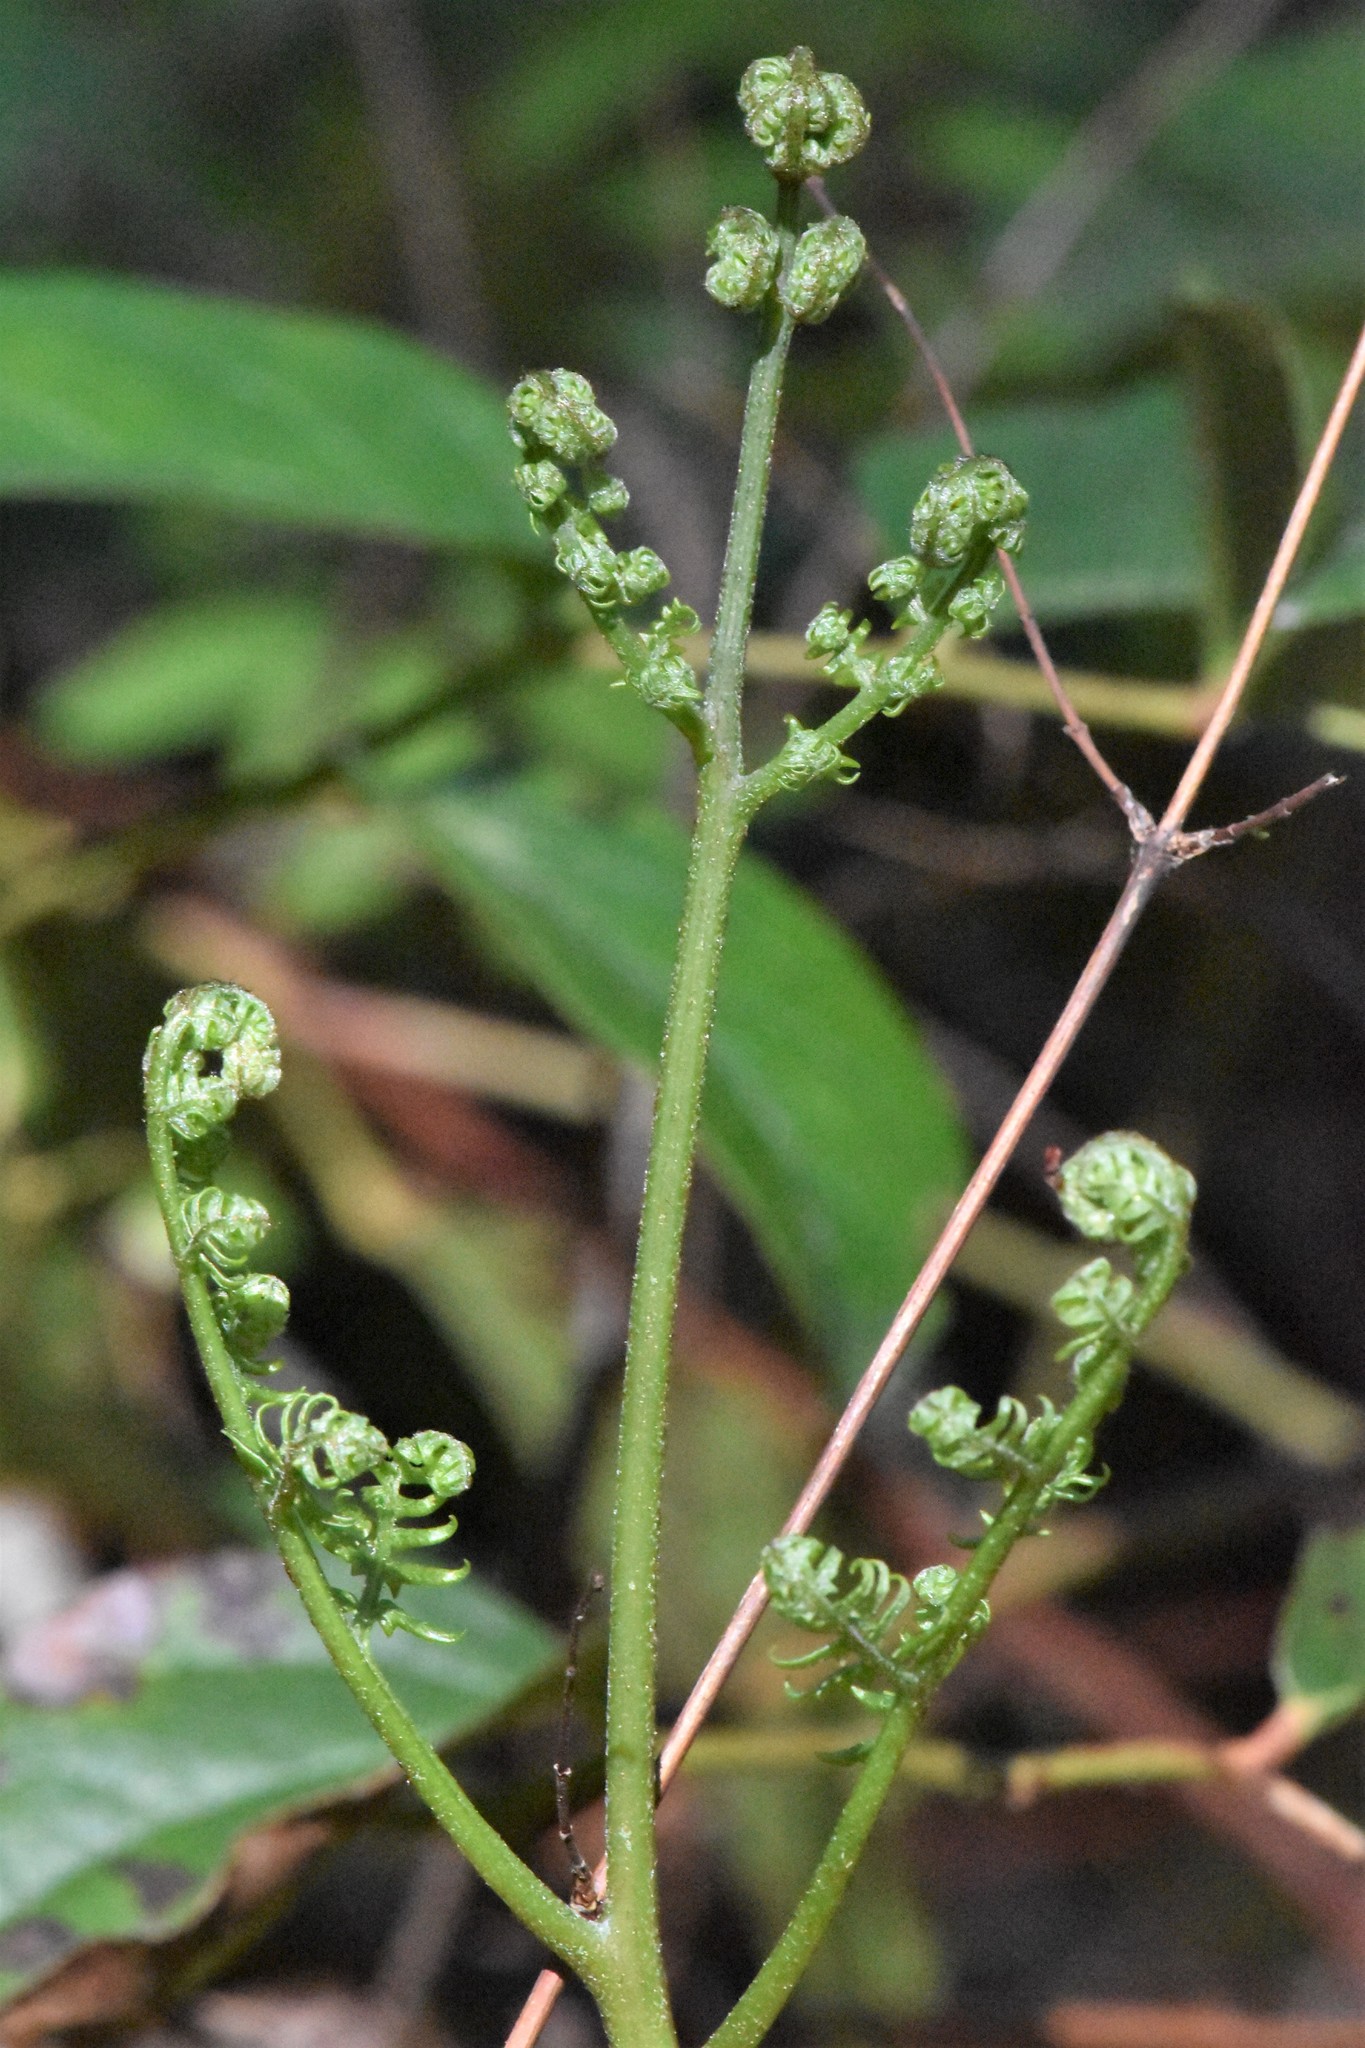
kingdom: Plantae
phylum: Tracheophyta
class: Polypodiopsida
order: Polypodiales
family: Dennstaedtiaceae
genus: Pteridium
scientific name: Pteridium aquilinum
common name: Bracken
